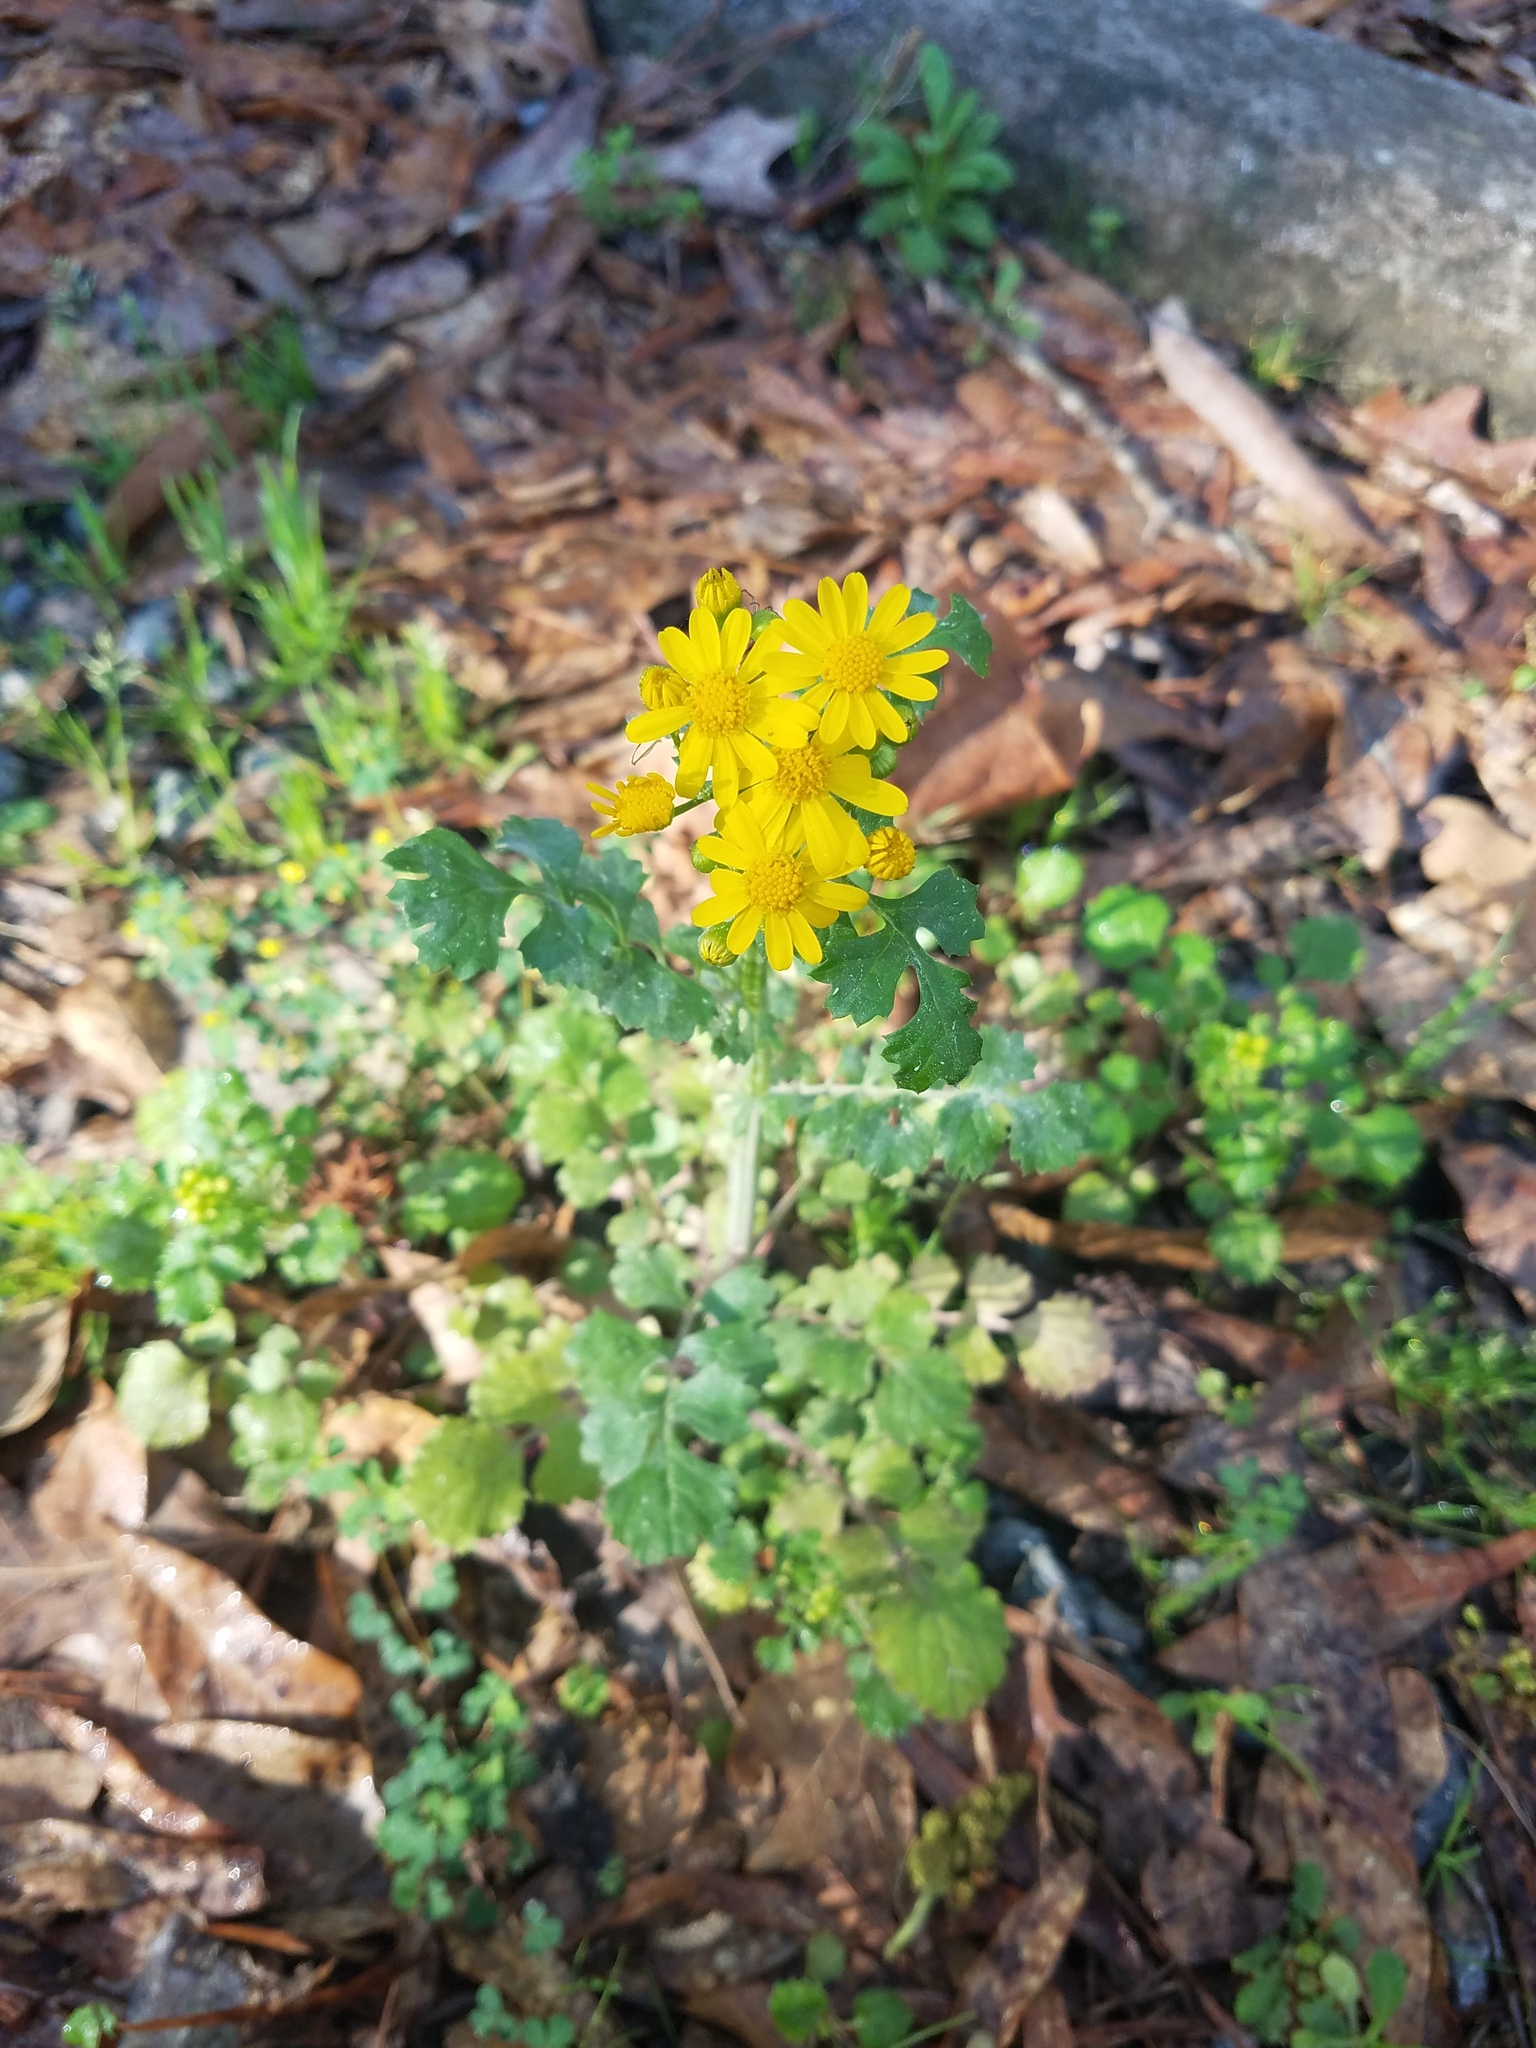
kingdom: Plantae
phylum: Tracheophyta
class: Magnoliopsida
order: Asterales
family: Asteraceae
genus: Packera
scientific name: Packera glabella
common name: Butterweed
